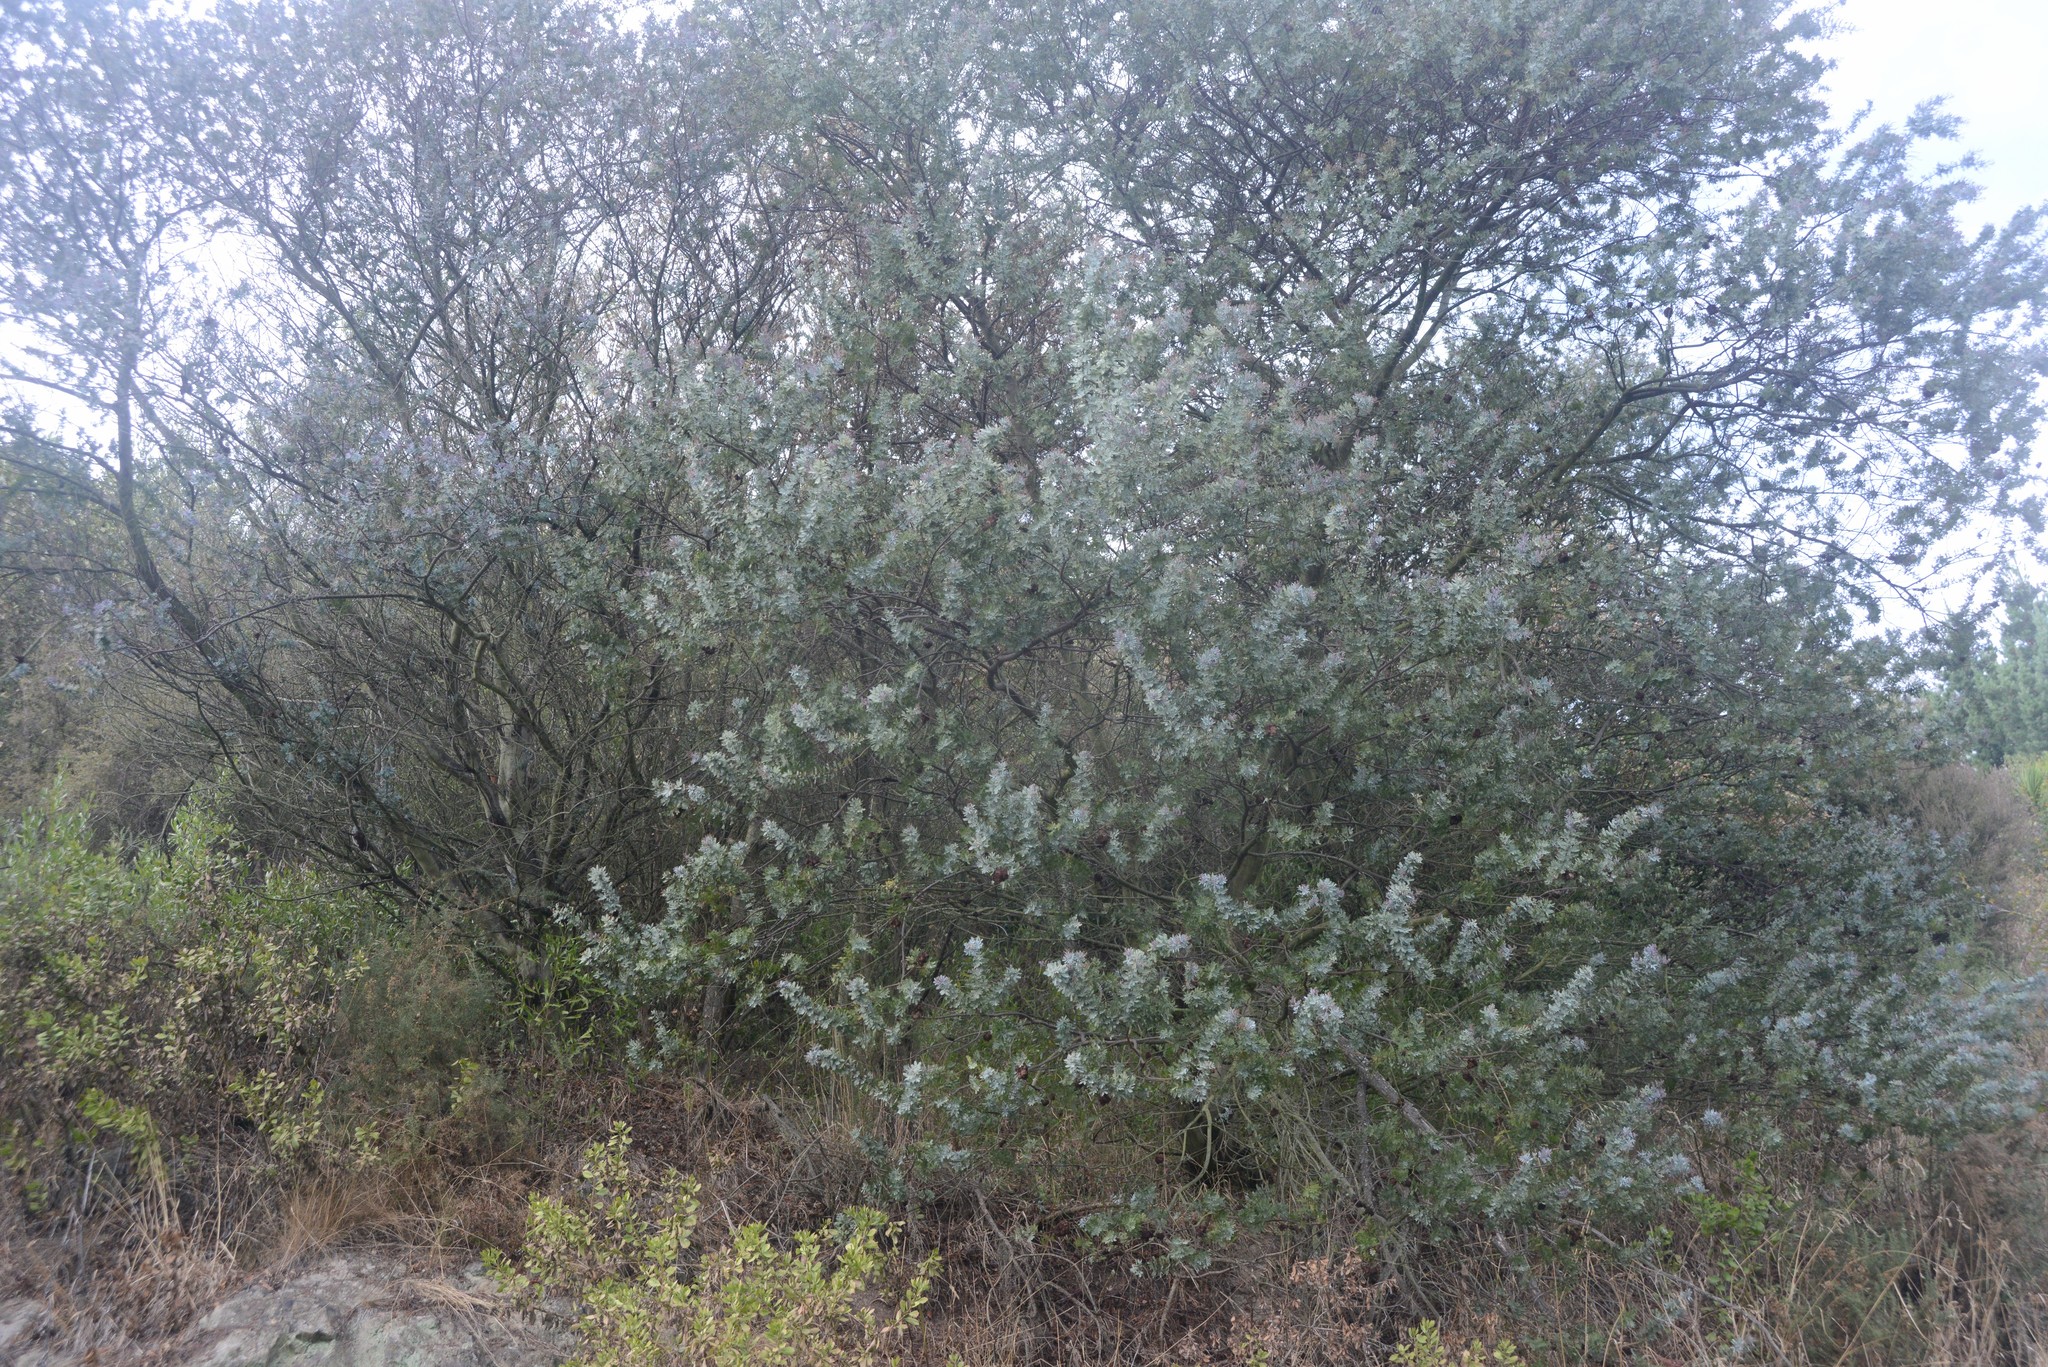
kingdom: Plantae
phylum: Tracheophyta
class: Magnoliopsida
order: Fabales
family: Fabaceae
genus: Acacia
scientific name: Acacia baileyana
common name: Cootamundra wattle
